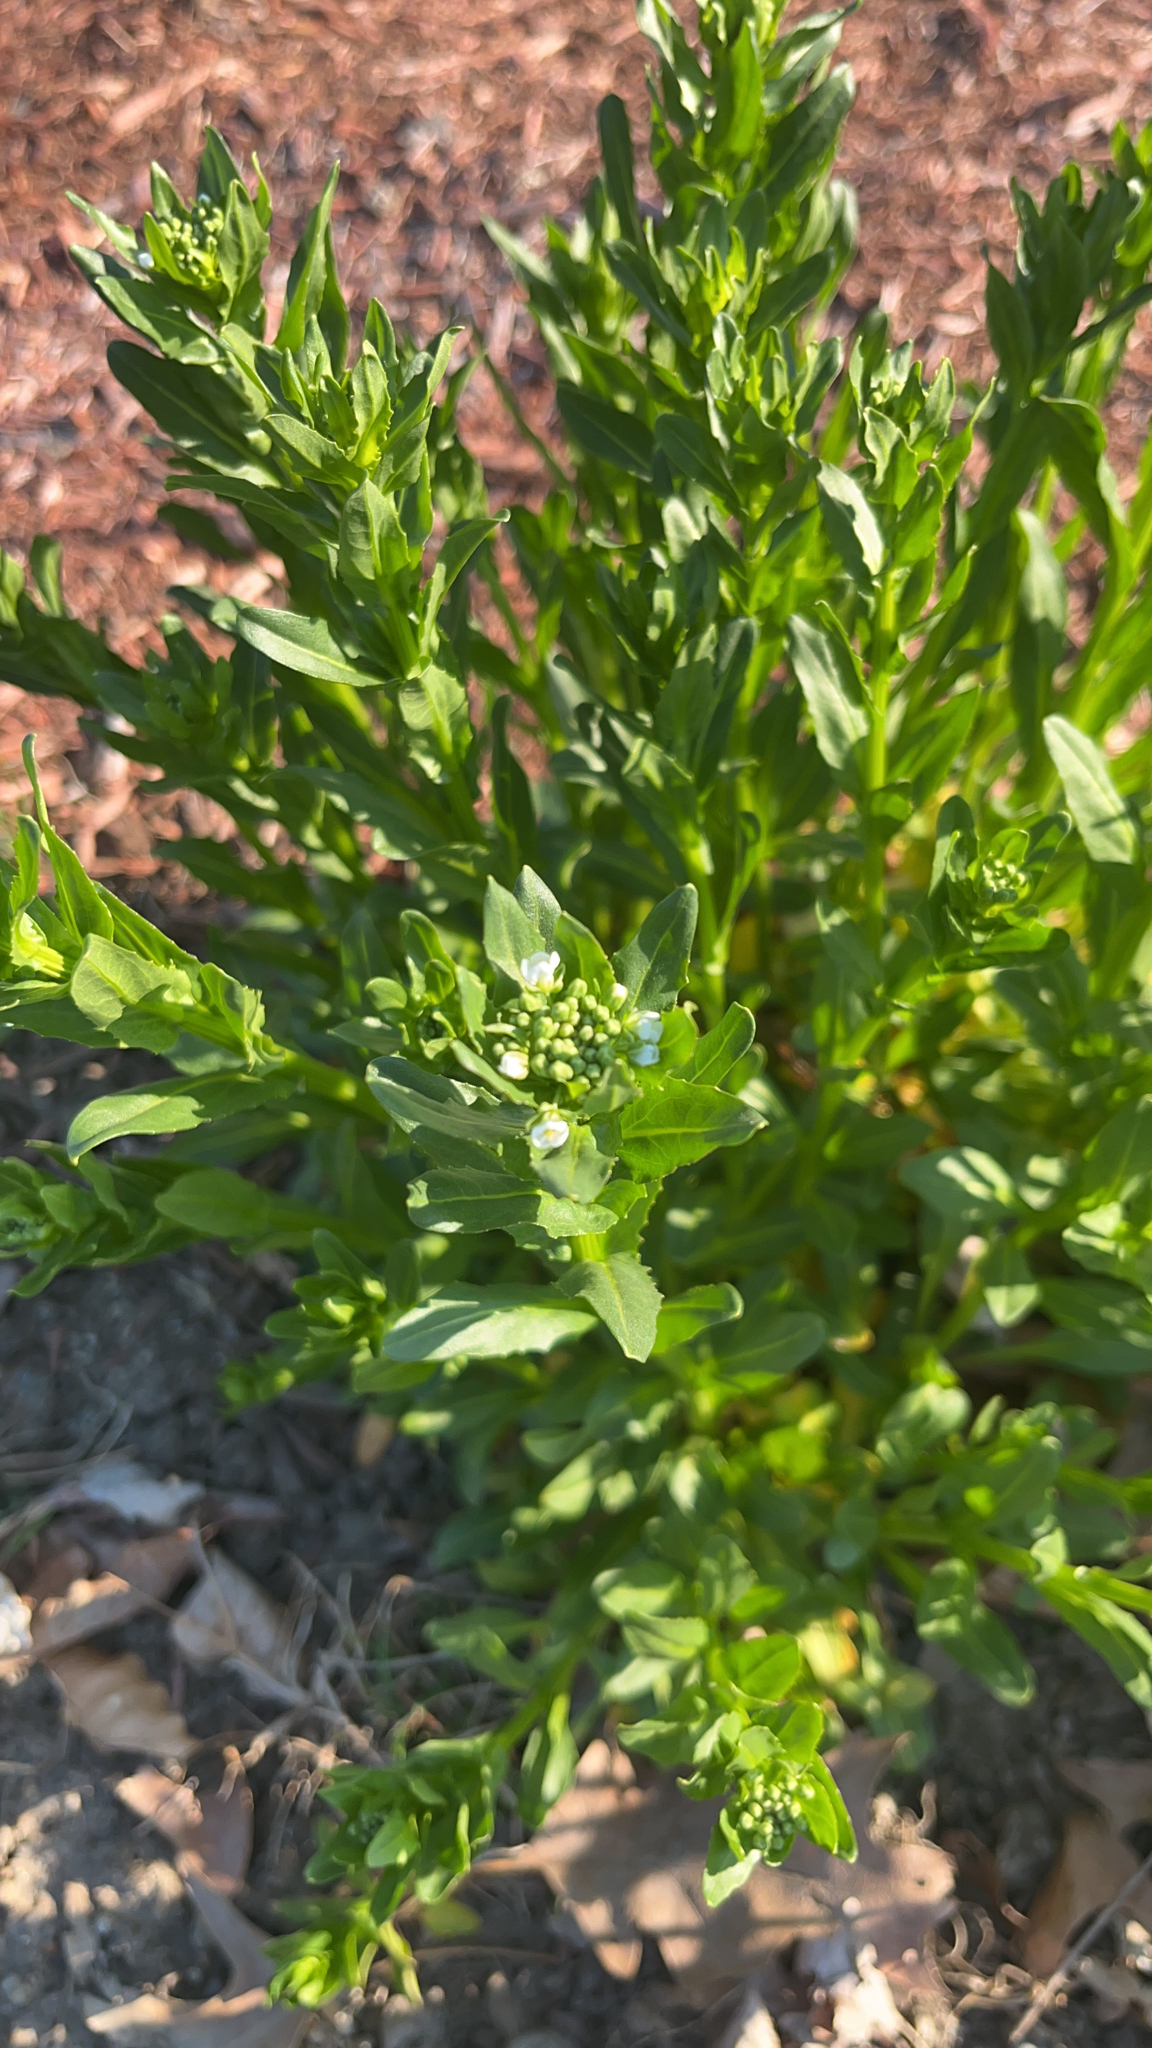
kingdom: Plantae
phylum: Tracheophyta
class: Magnoliopsida
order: Brassicales
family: Brassicaceae
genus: Thlaspi
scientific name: Thlaspi arvense
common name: Field pennycress
